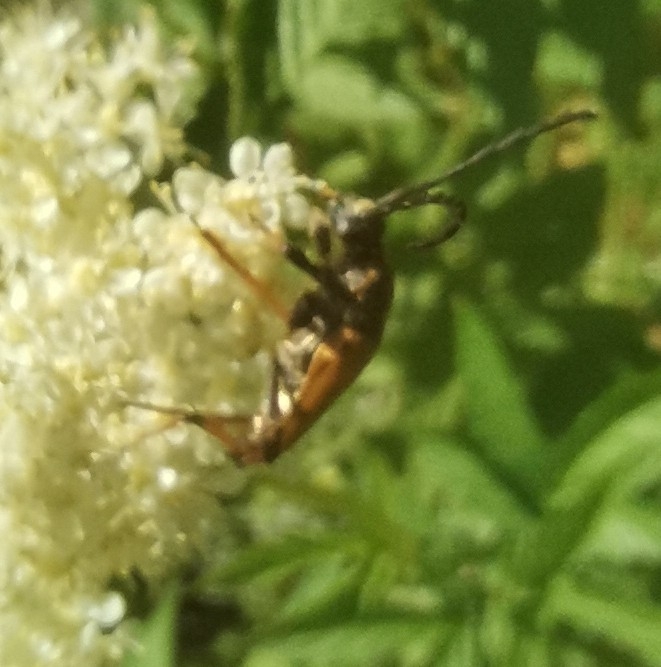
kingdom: Animalia
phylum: Arthropoda
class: Insecta
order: Coleoptera
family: Cerambycidae
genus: Stictoleptura
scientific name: Stictoleptura rubra
